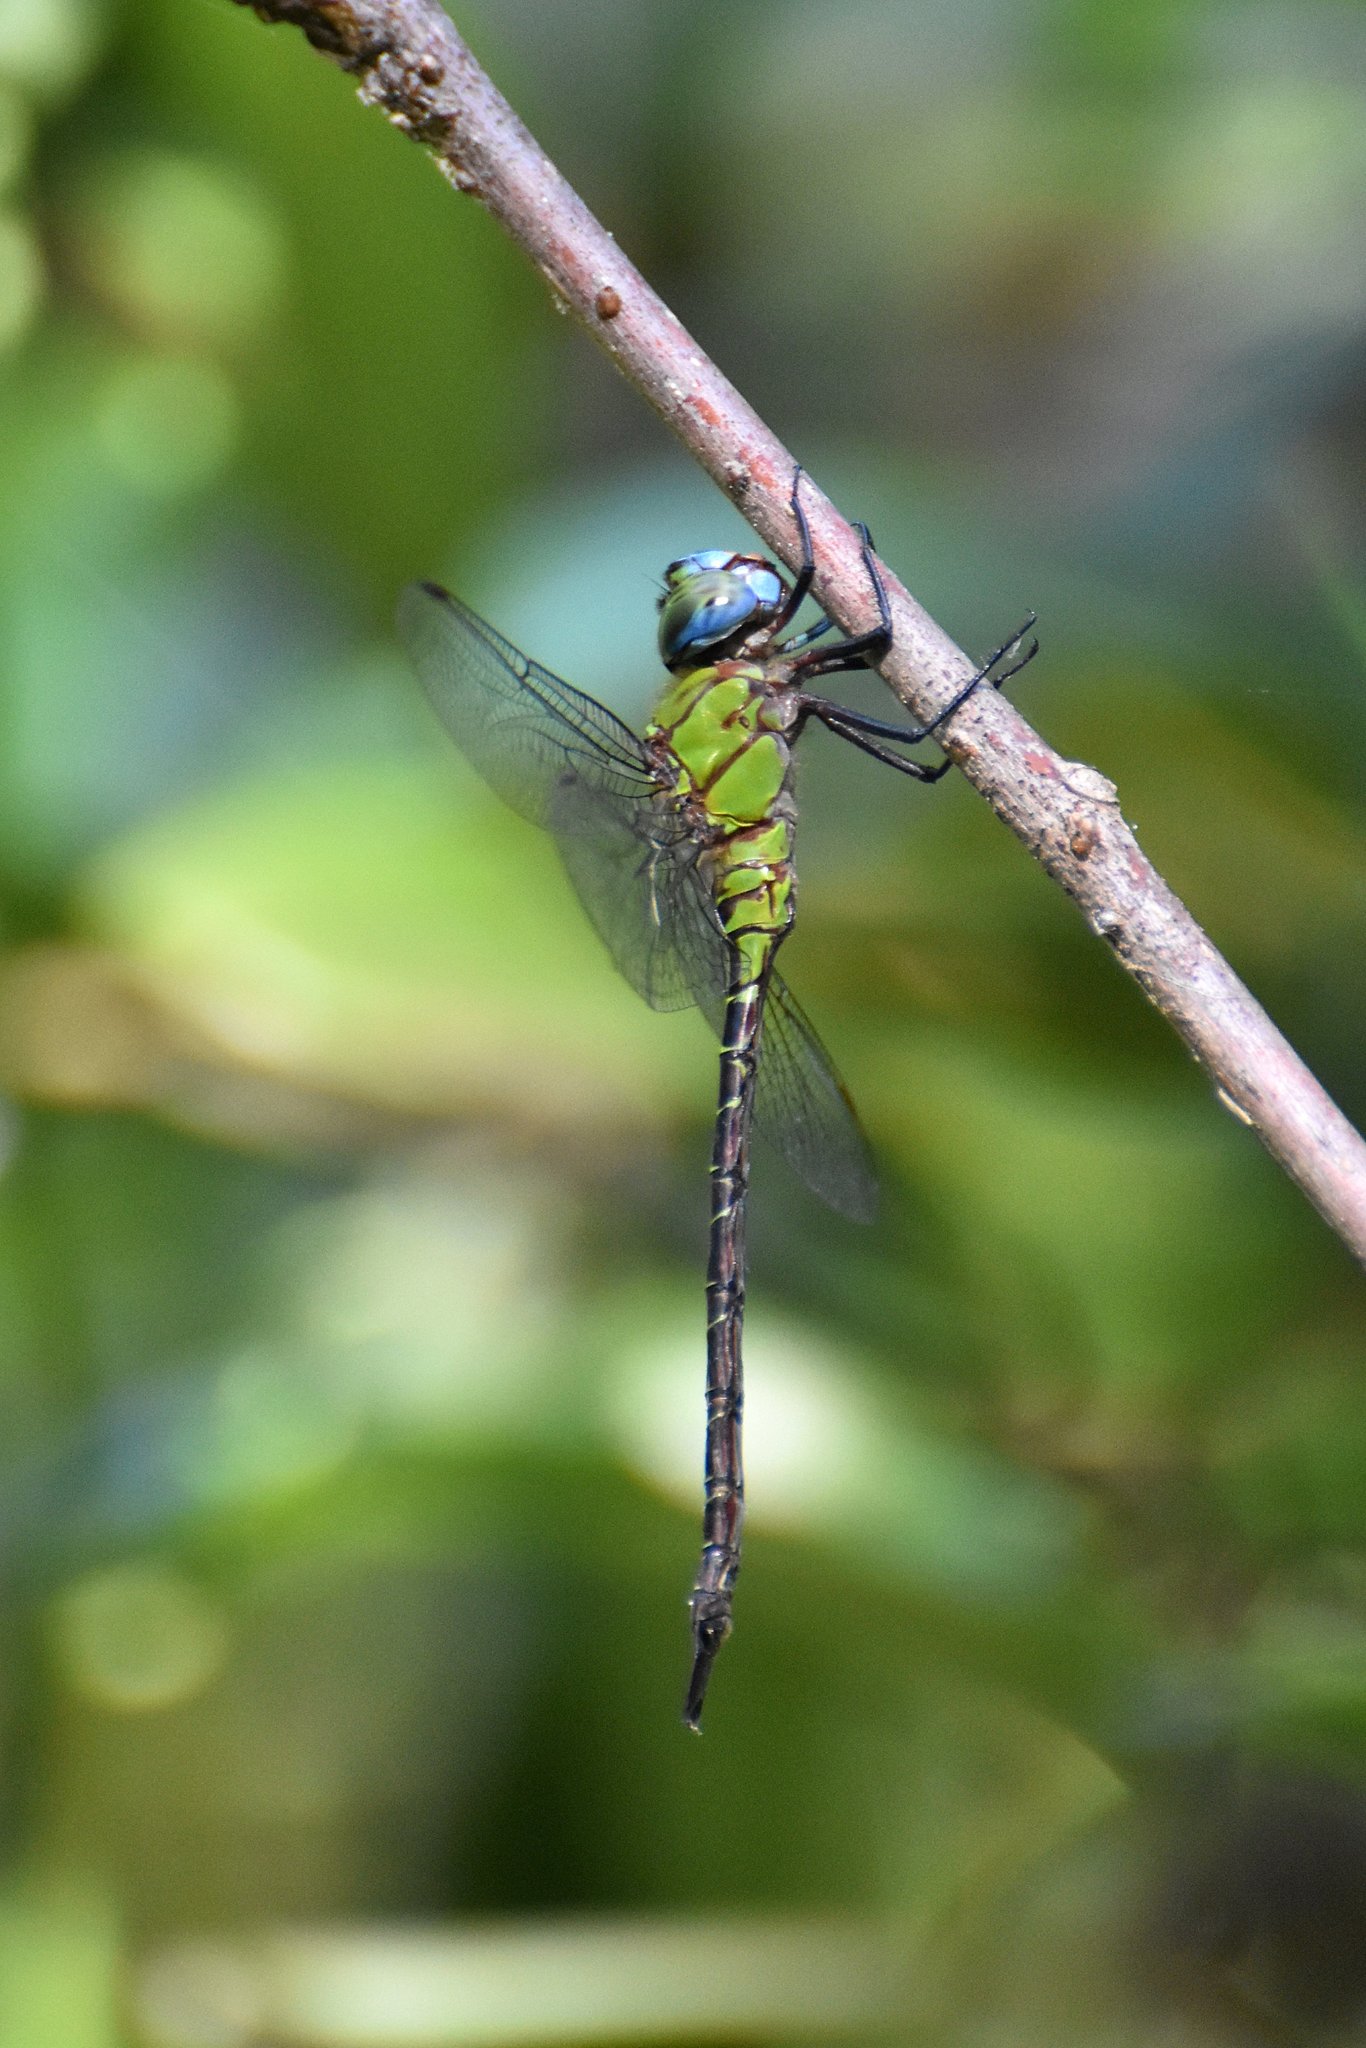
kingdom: Animalia
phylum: Arthropoda
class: Insecta
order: Odonata
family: Aeshnidae
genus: Coryphaeschna
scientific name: Coryphaeschna adnexa
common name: Blue-faced darner
